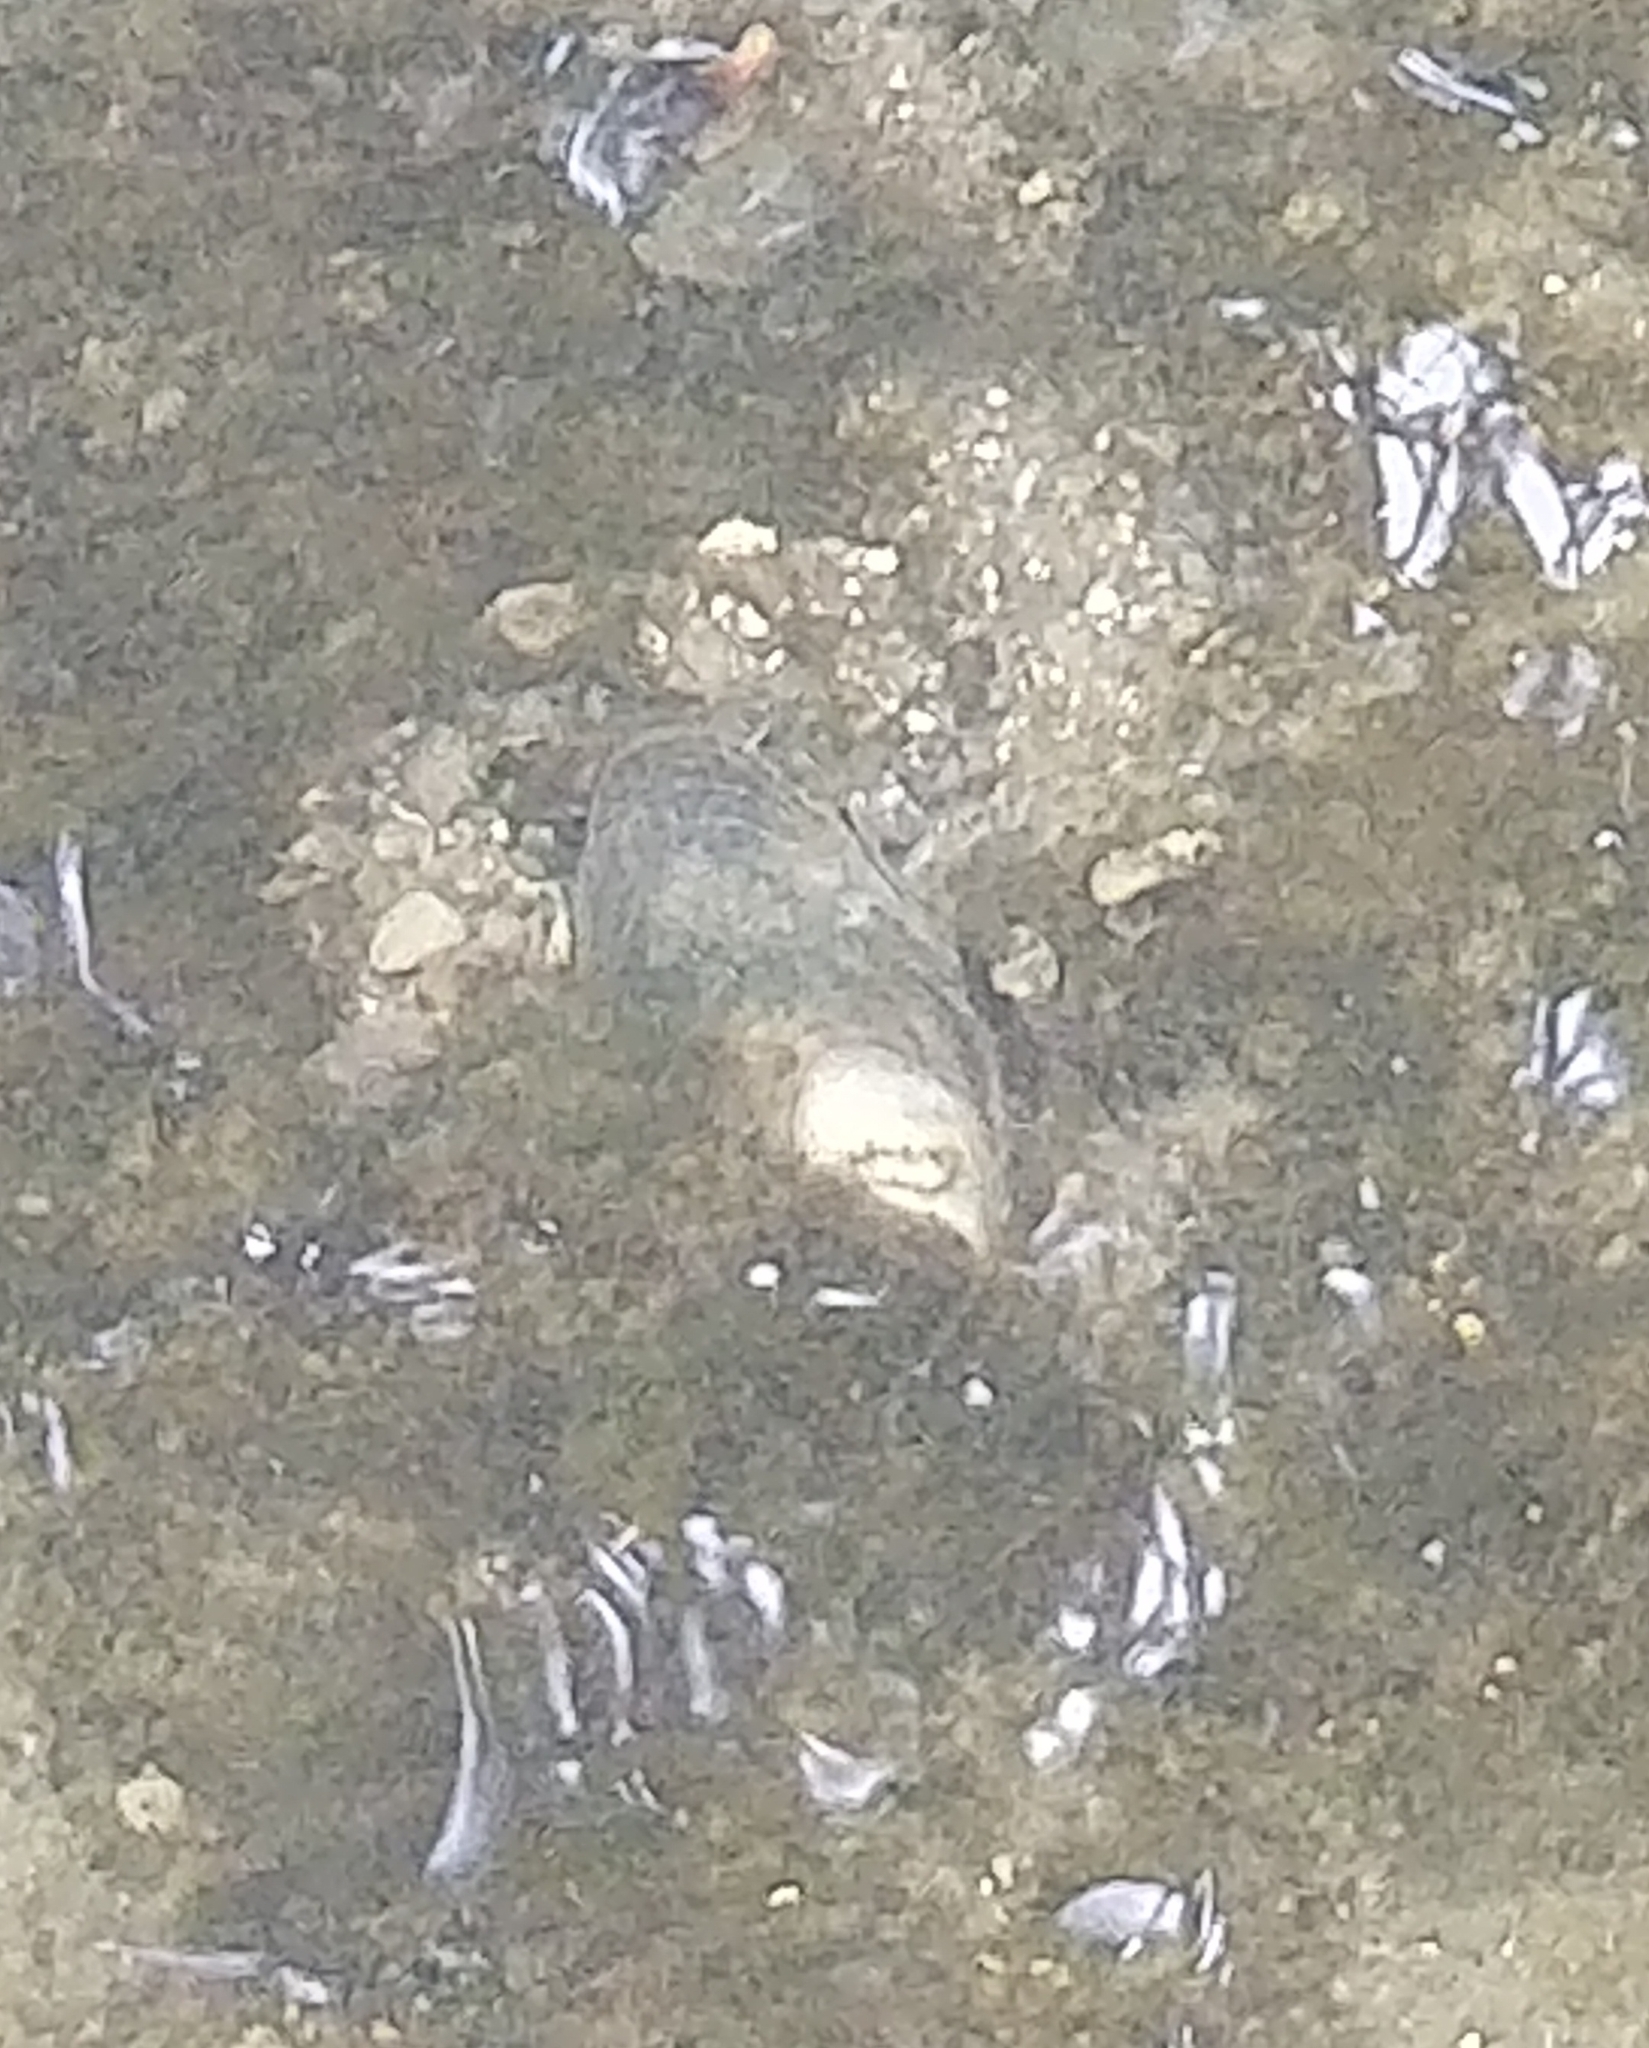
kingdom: Animalia
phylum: Mollusca
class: Bivalvia
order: Unionida
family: Unionidae
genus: Anodonta
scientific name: Anodonta anatina
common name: Duck mussel
